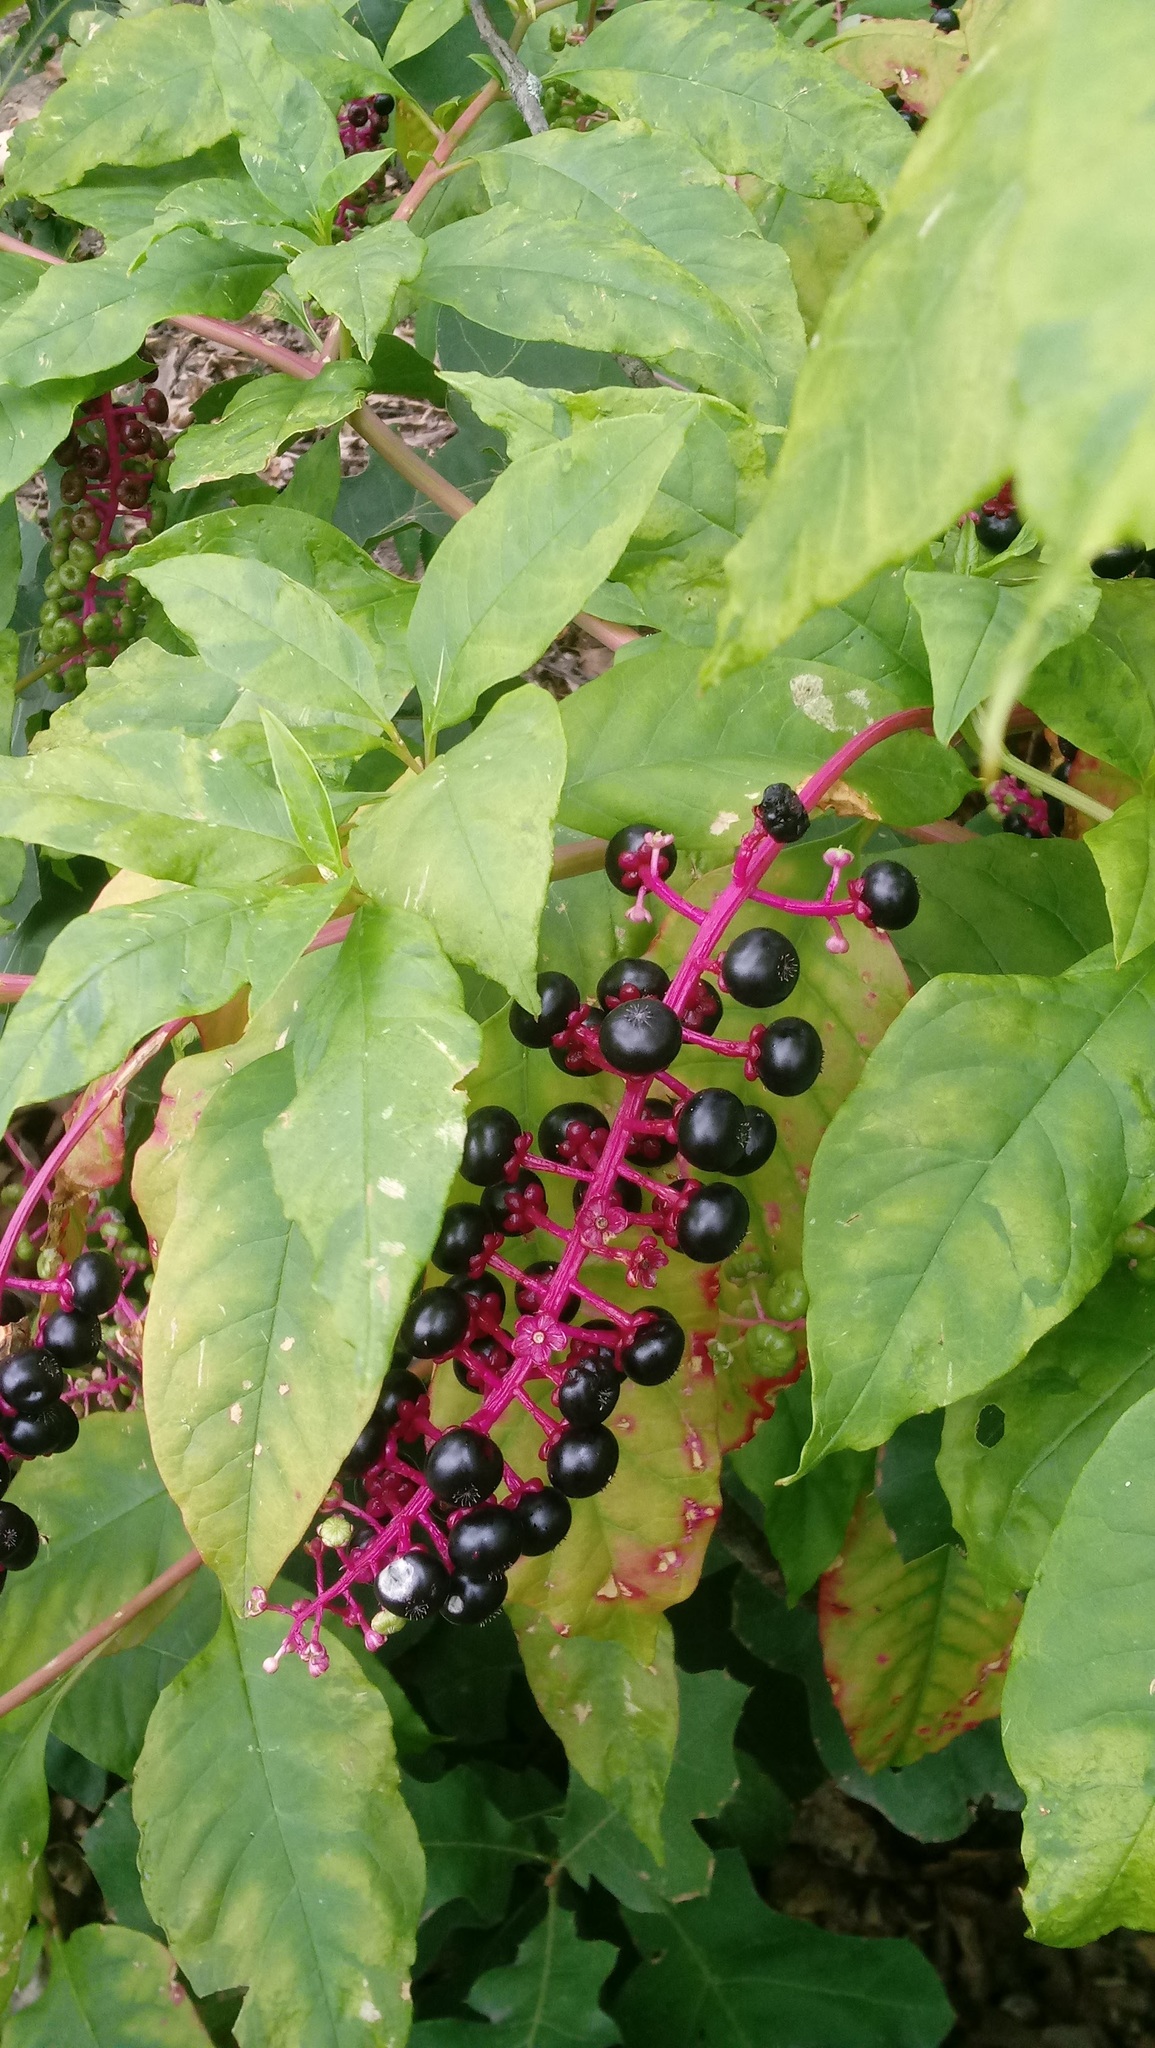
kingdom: Plantae
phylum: Tracheophyta
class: Magnoliopsida
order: Caryophyllales
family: Phytolaccaceae
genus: Phytolacca
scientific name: Phytolacca americana
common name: American pokeweed
